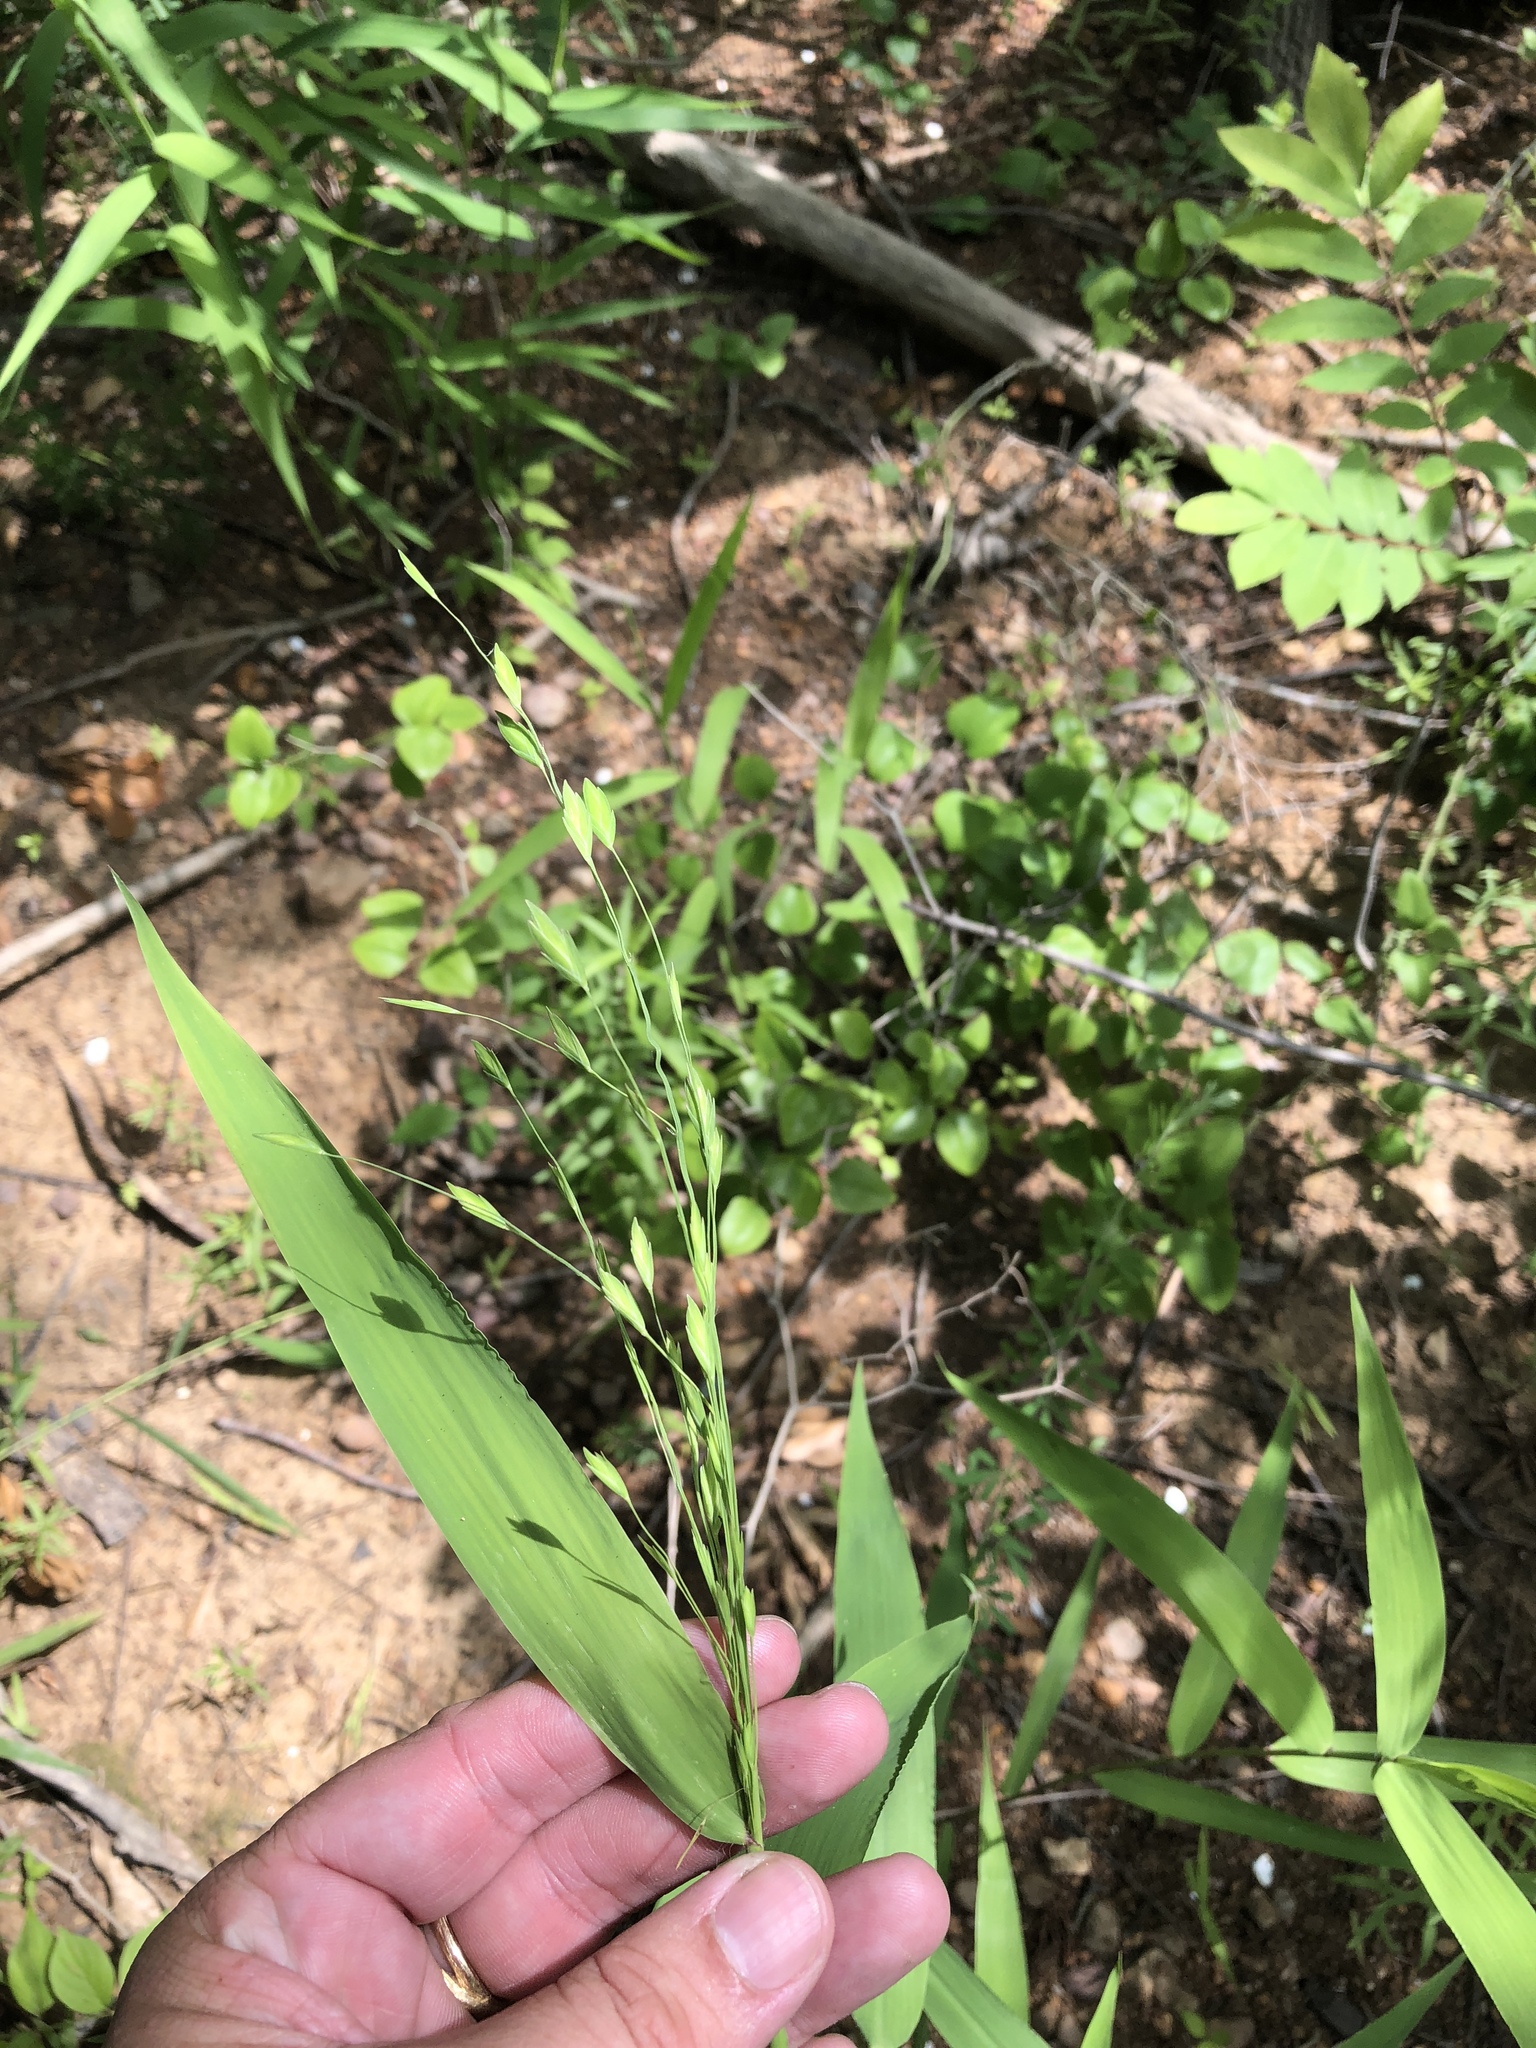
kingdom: Plantae
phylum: Tracheophyta
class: Liliopsida
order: Poales
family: Poaceae
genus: Chasmanthium
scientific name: Chasmanthium latifolium
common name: Broad-leaved chasmanthium
